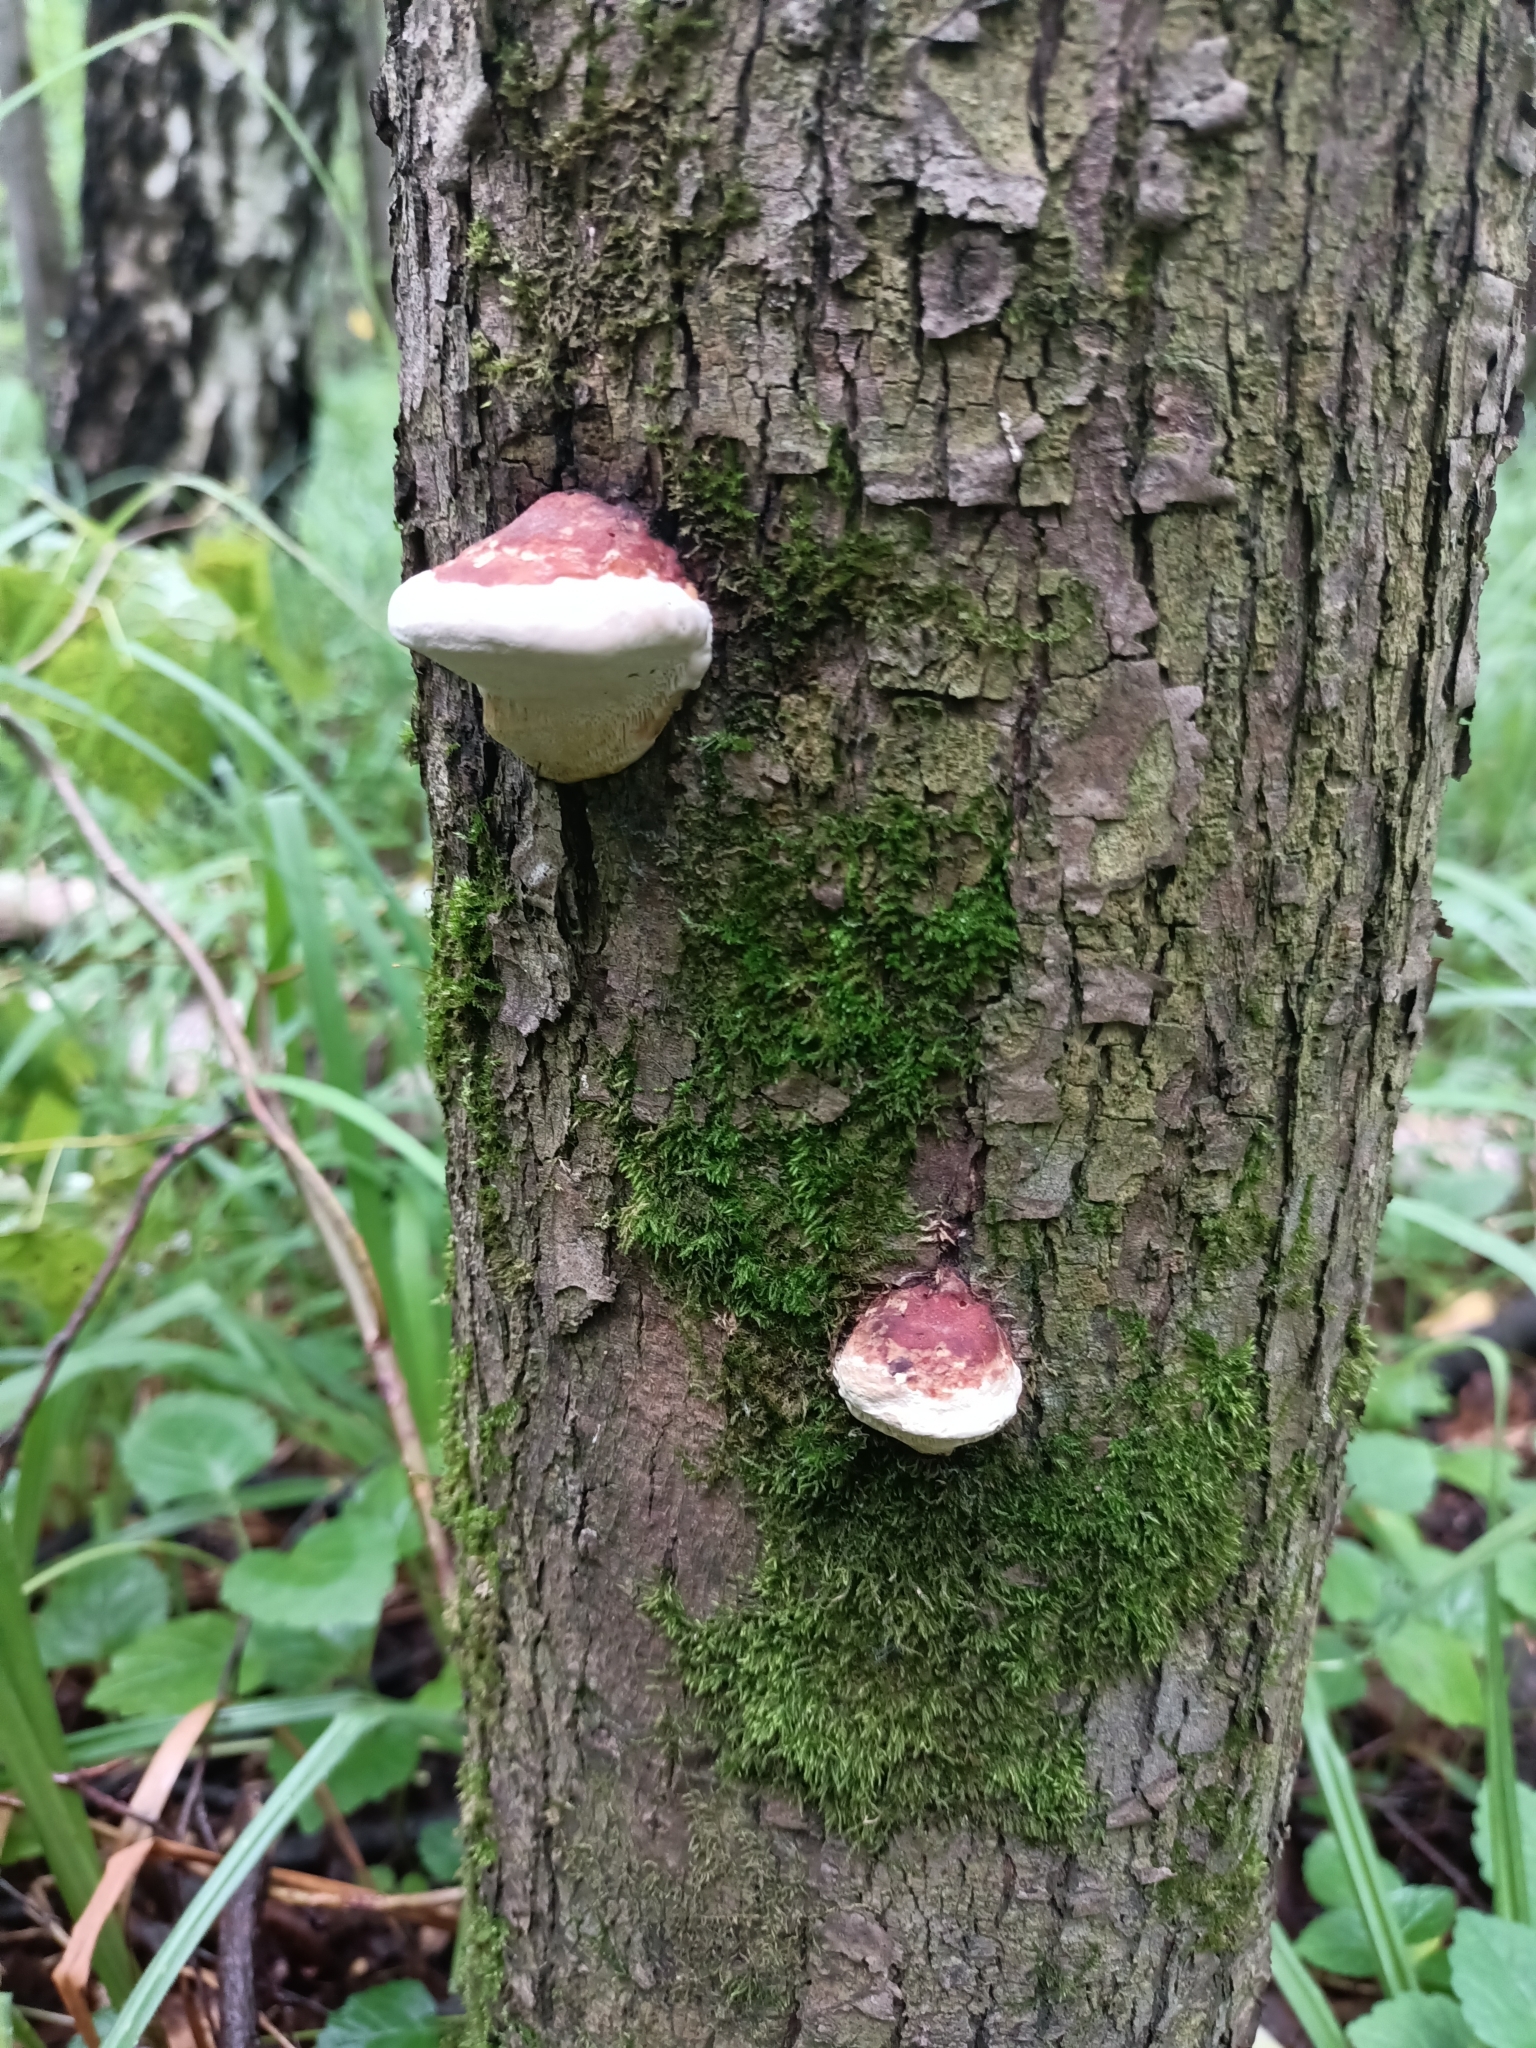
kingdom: Fungi
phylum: Basidiomycota
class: Agaricomycetes
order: Polyporales
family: Fomitopsidaceae
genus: Fomitopsis
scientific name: Fomitopsis pinicola
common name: Red-belted bracket
